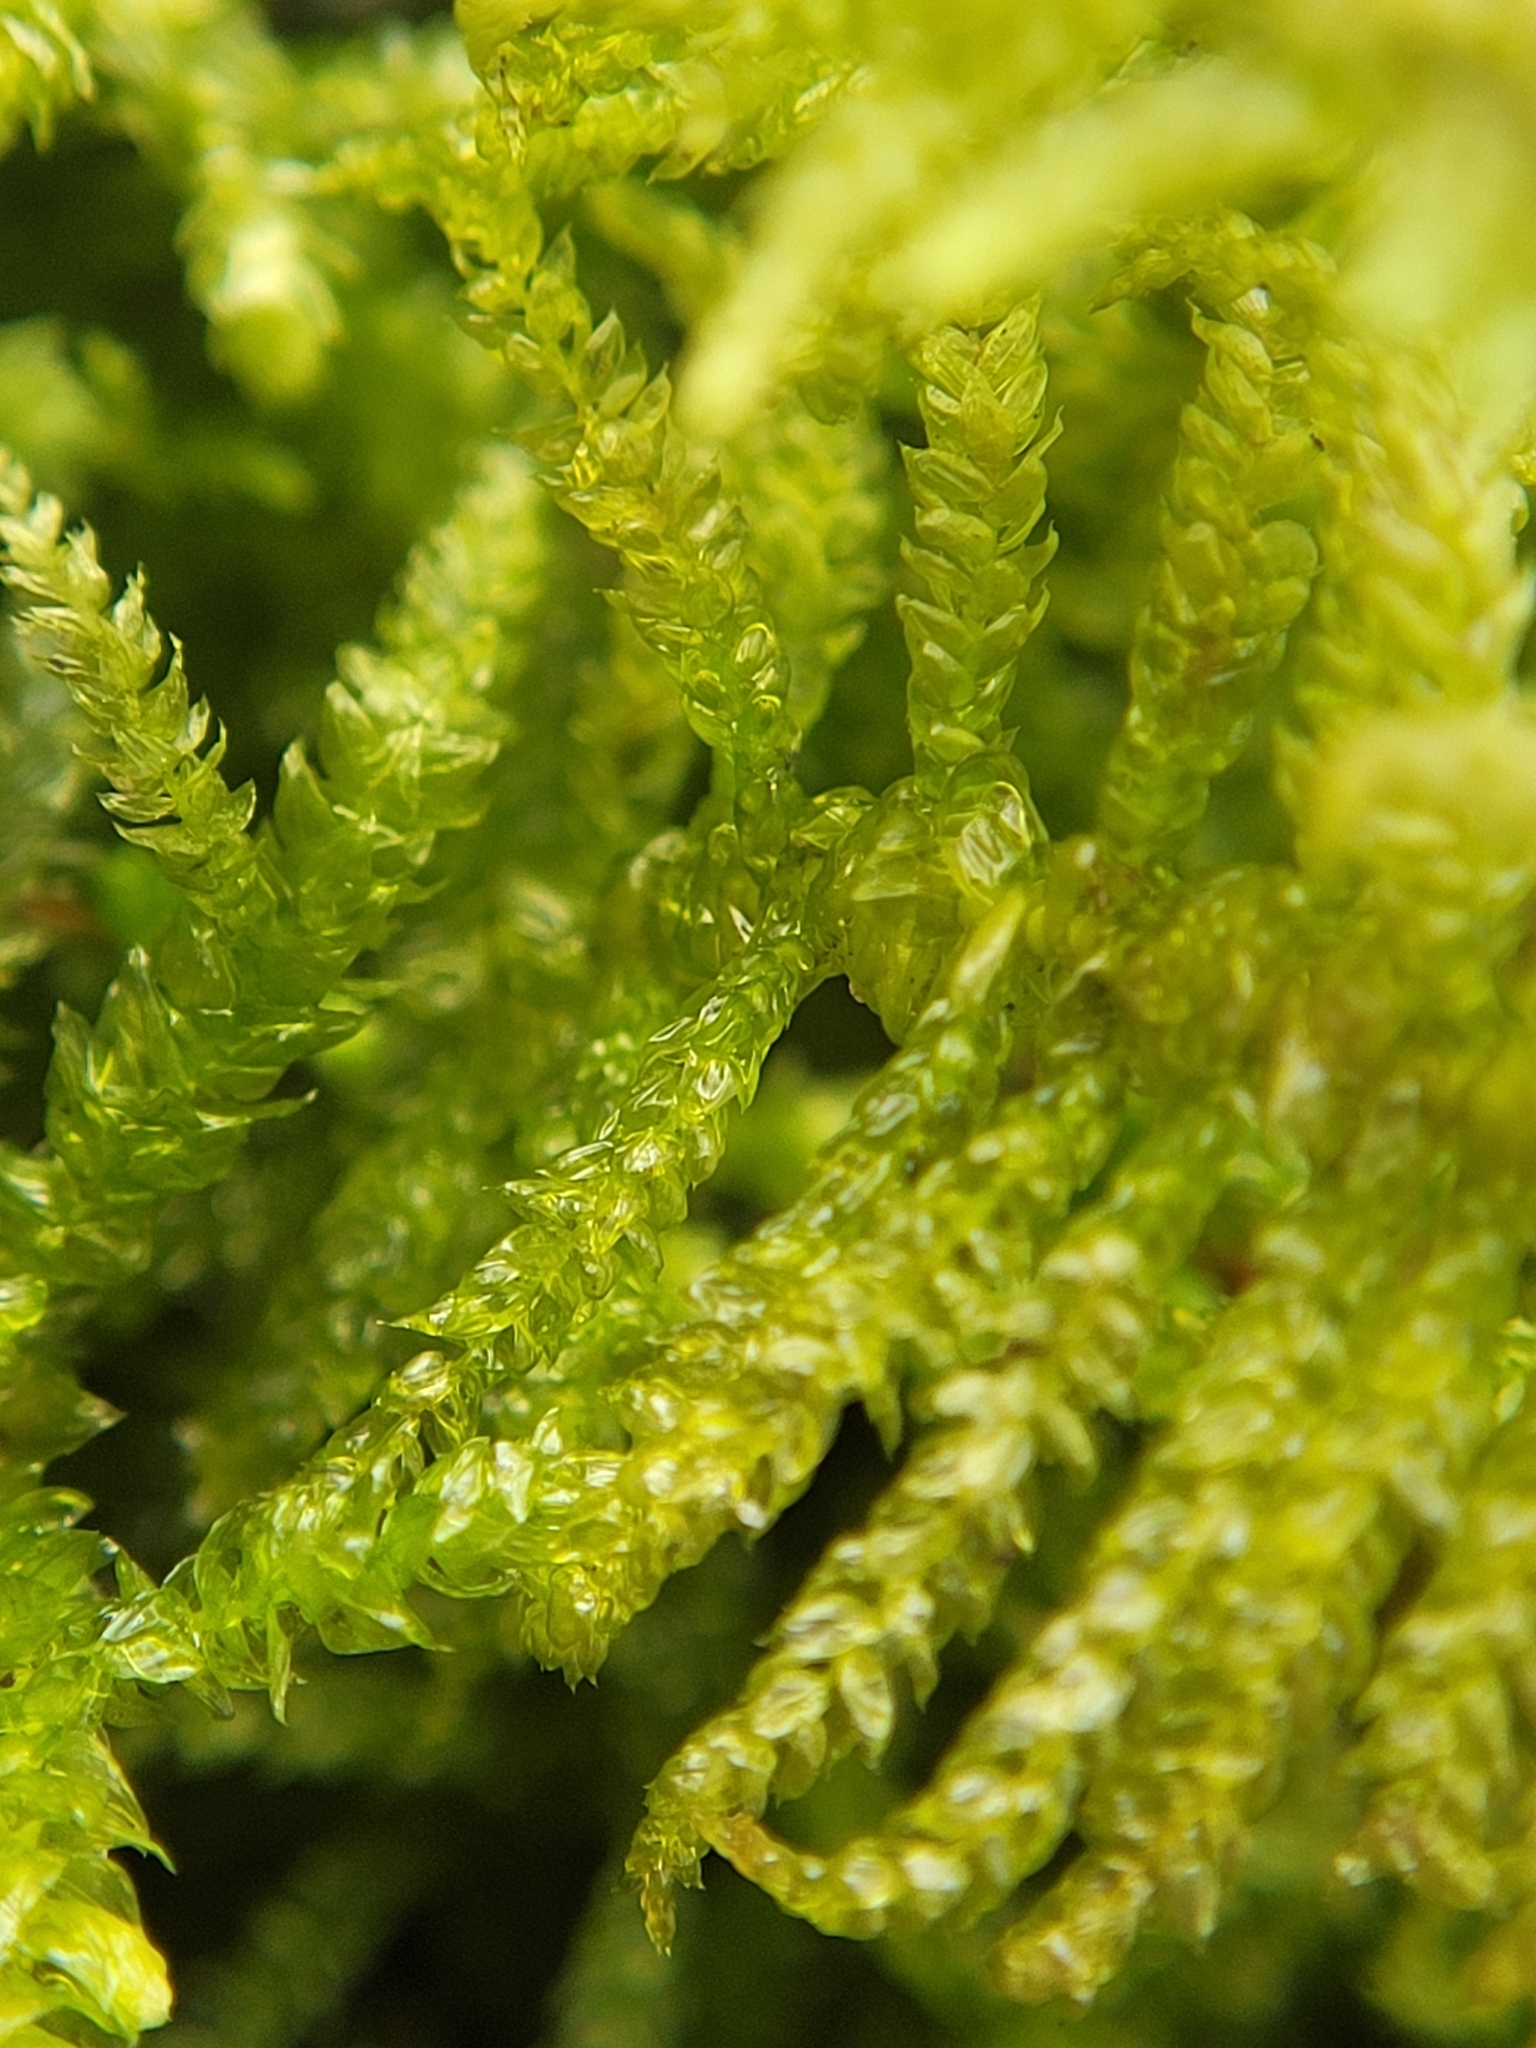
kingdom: Plantae
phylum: Bryophyta
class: Bryopsida
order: Hypnales
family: Brachytheciaceae
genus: Pseudoscleropodium
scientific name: Pseudoscleropodium purum
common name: Neat feather-moss
